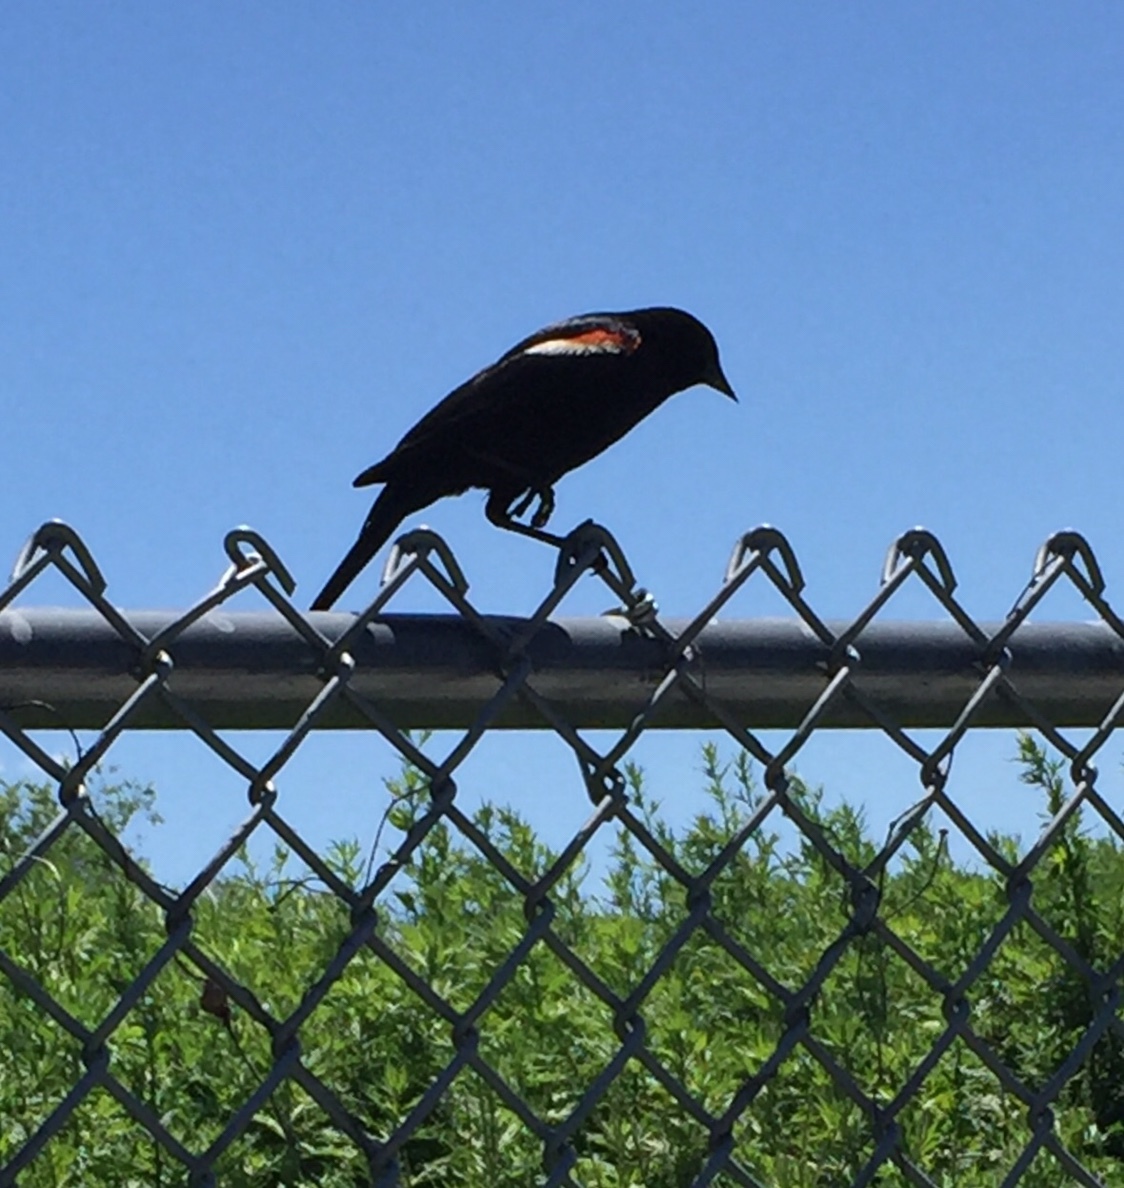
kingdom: Animalia
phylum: Chordata
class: Aves
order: Passeriformes
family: Icteridae
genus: Agelaius
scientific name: Agelaius phoeniceus
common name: Red-winged blackbird
